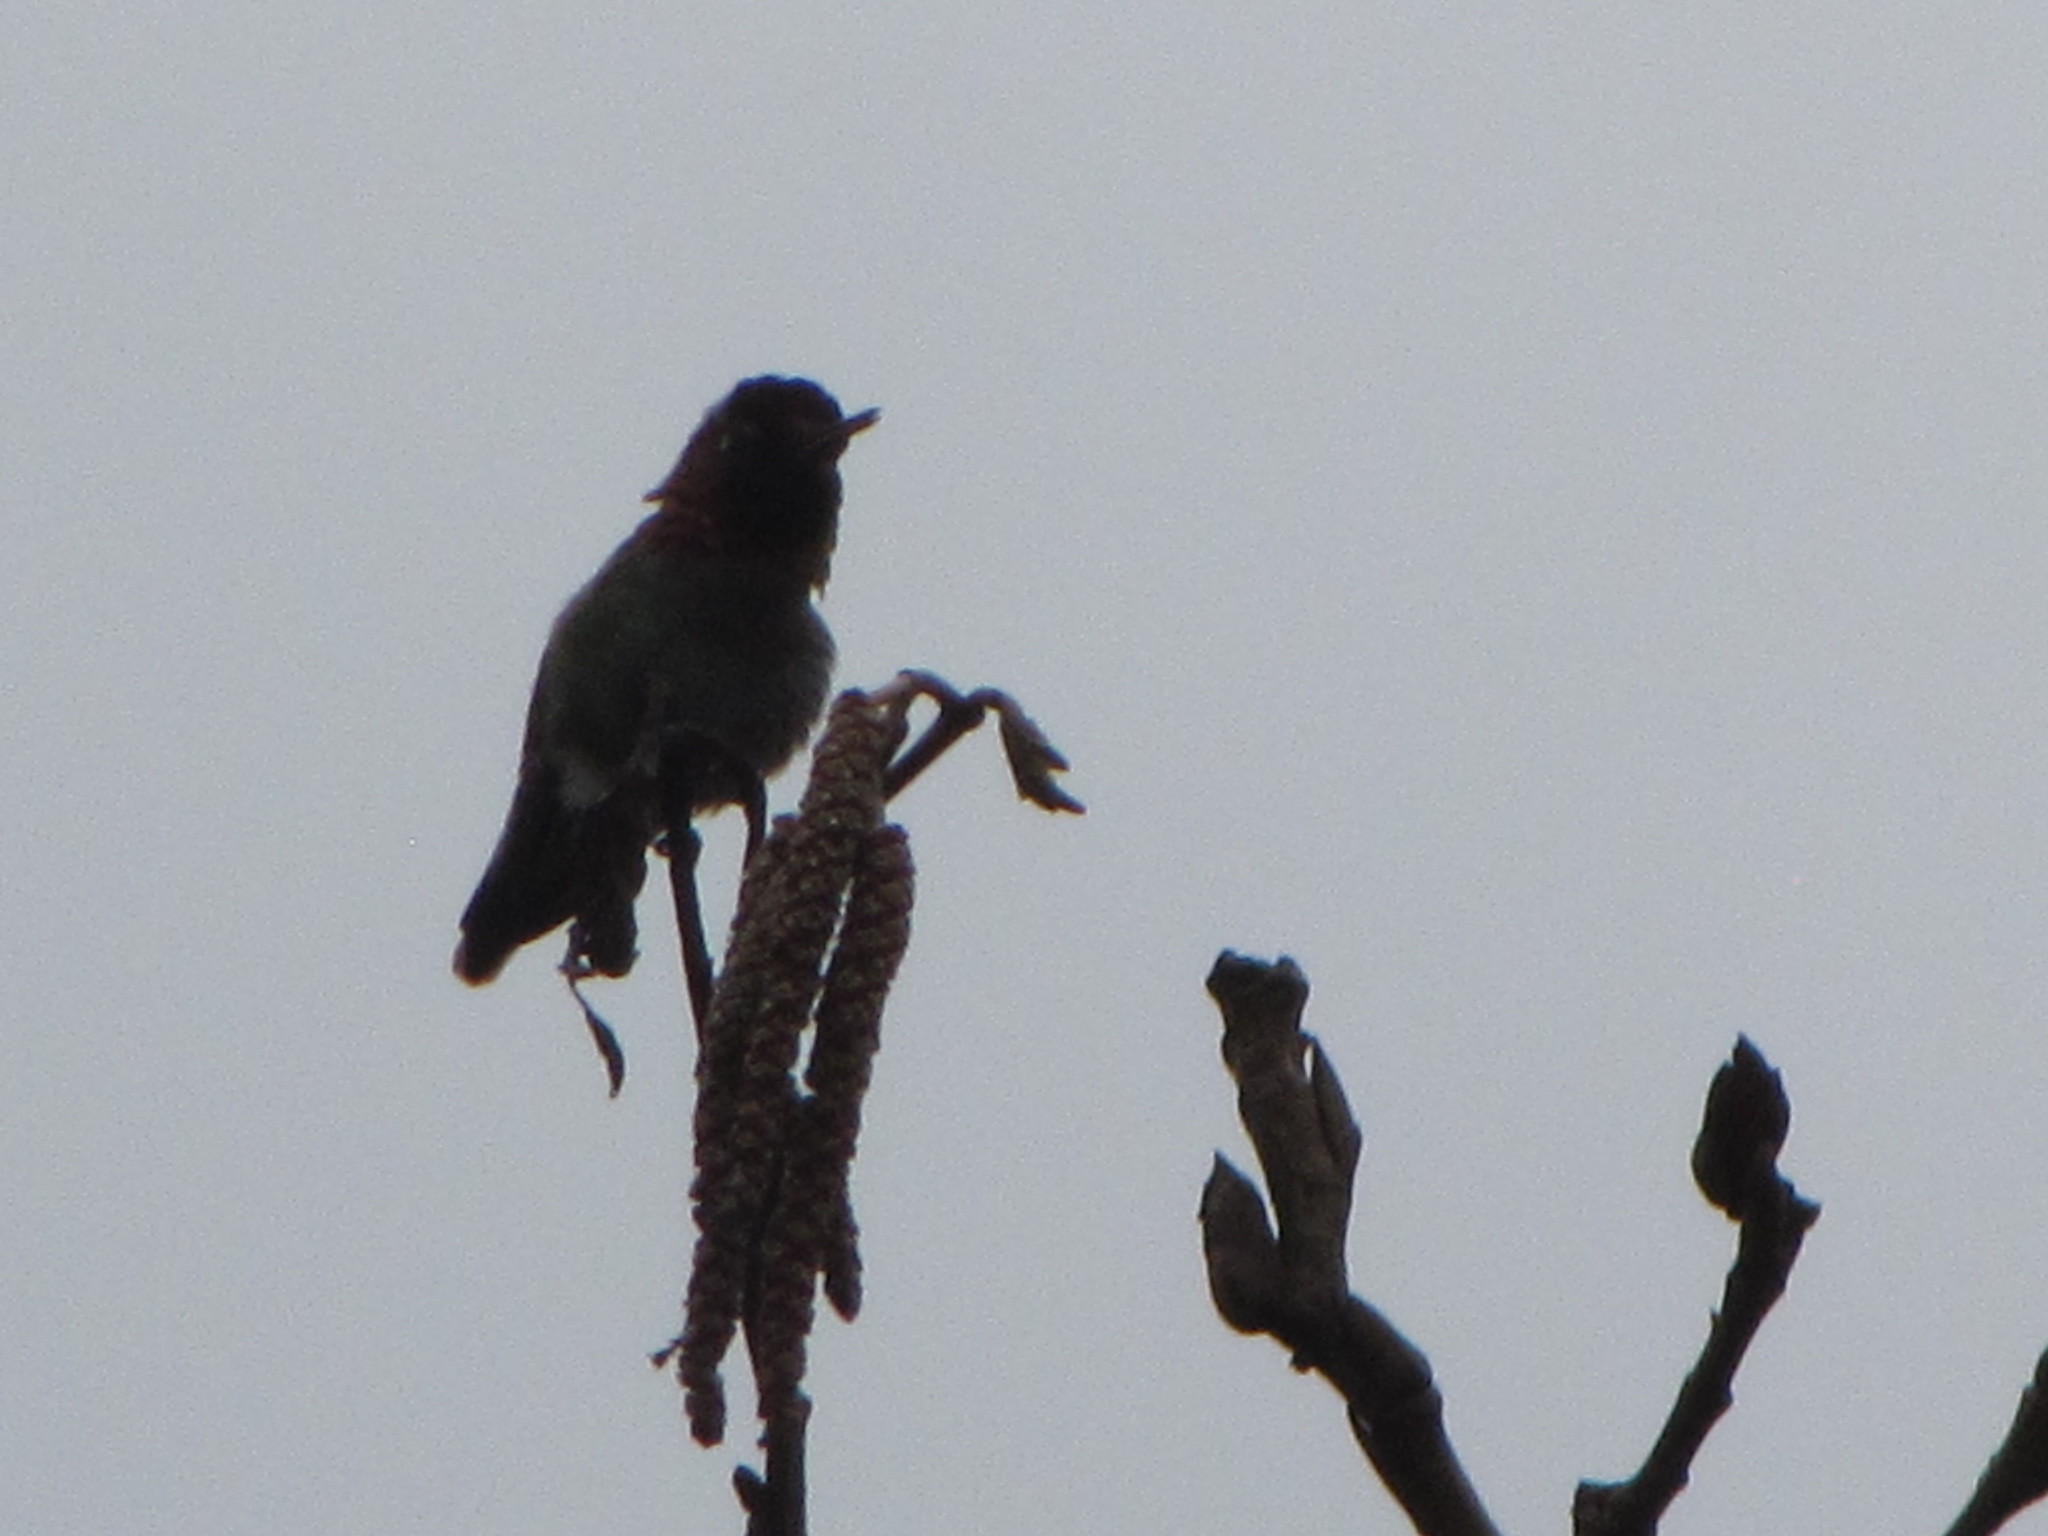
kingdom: Animalia
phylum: Chordata
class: Aves
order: Apodiformes
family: Trochilidae
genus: Calypte
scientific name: Calypte anna
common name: Anna's hummingbird
